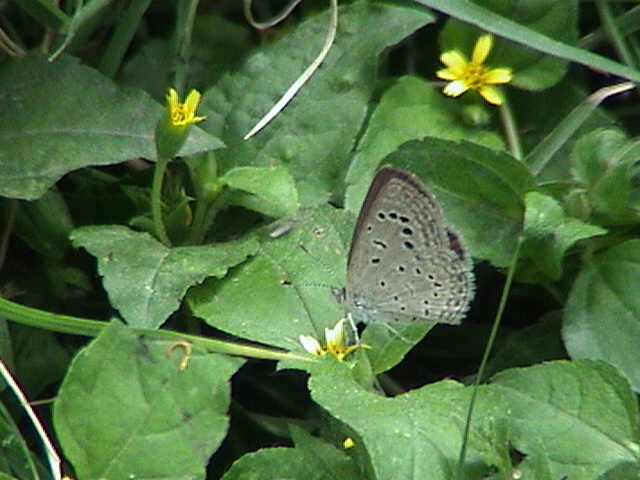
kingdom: Animalia
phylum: Arthropoda
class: Insecta
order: Lepidoptera
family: Lycaenidae
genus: Zizeeria
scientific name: Zizeeria karsandra
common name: Dark grass blue
